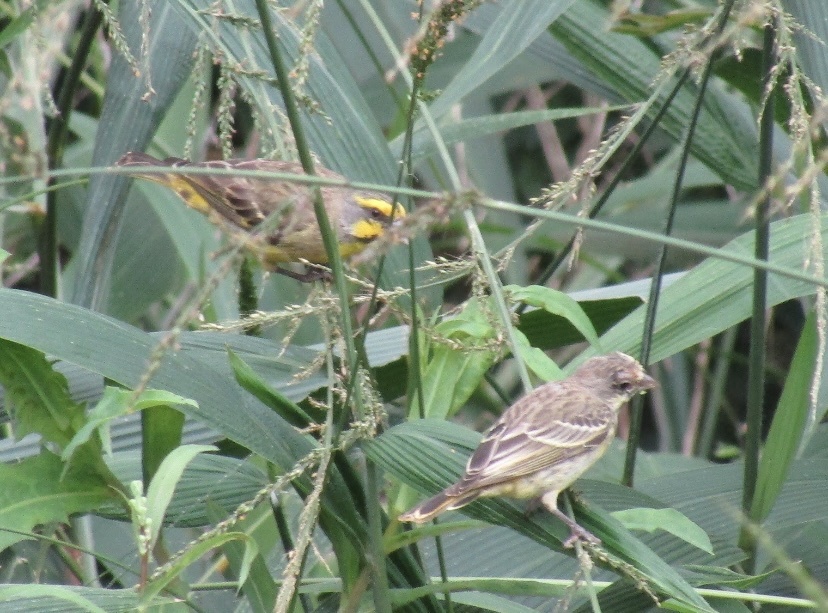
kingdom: Animalia
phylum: Chordata
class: Aves
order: Passeriformes
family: Fringillidae
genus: Crithagra
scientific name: Crithagra mozambica
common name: Yellow-fronted canary
